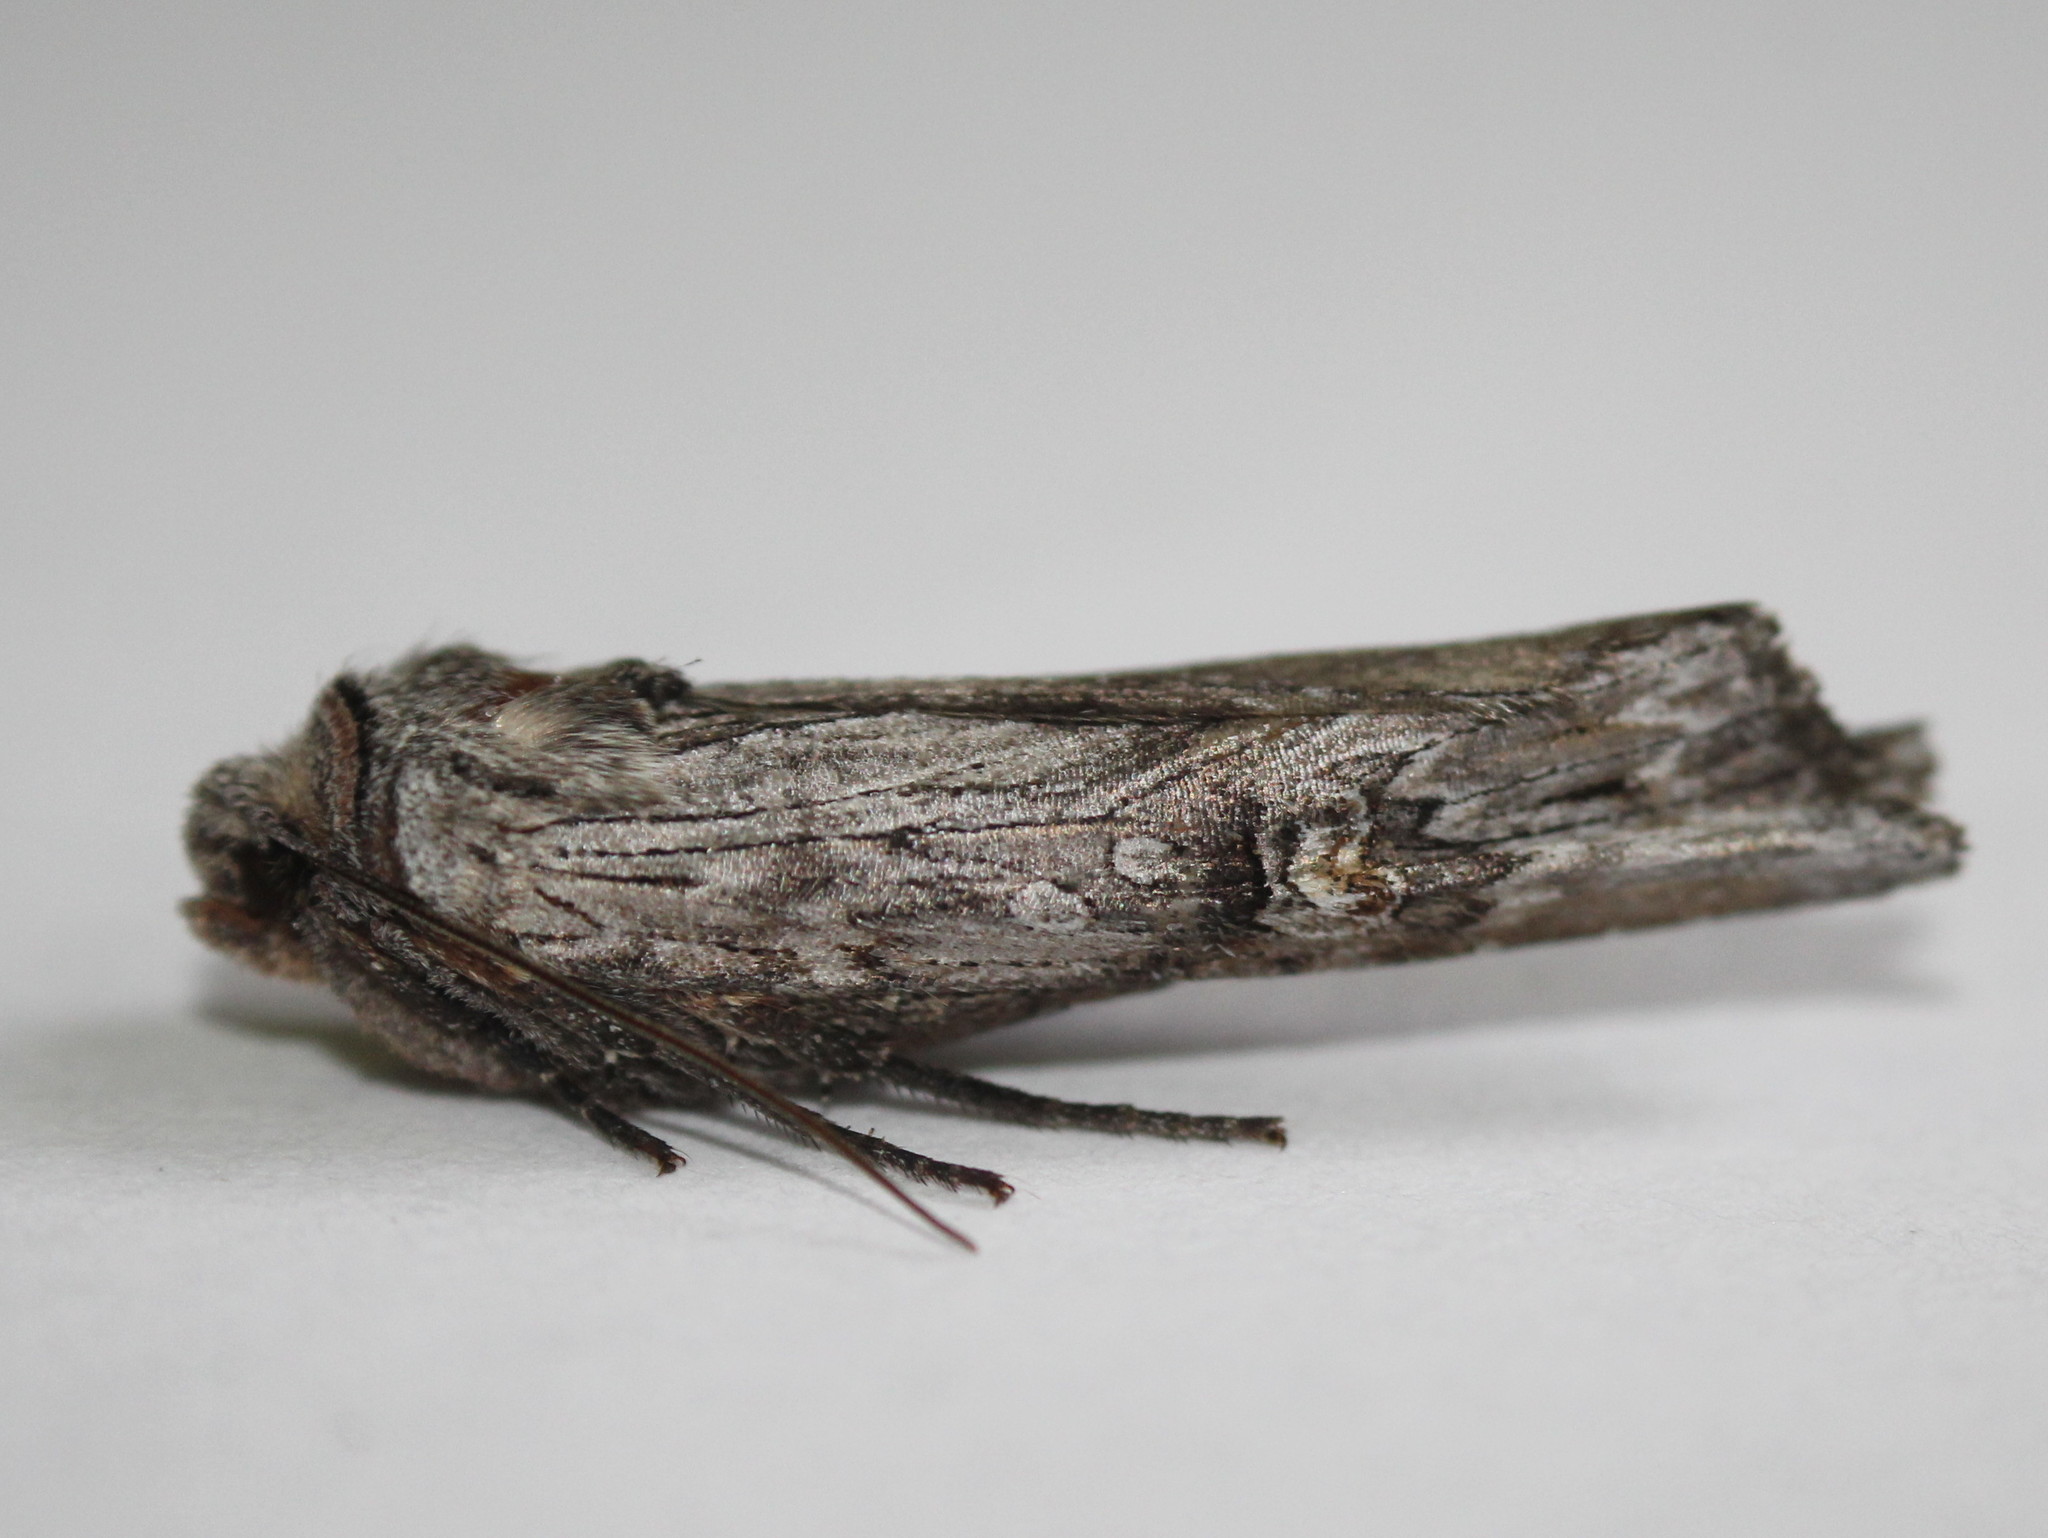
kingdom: Animalia
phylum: Arthropoda
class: Insecta
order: Lepidoptera
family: Noctuidae
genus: Xylena
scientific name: Xylena germana
